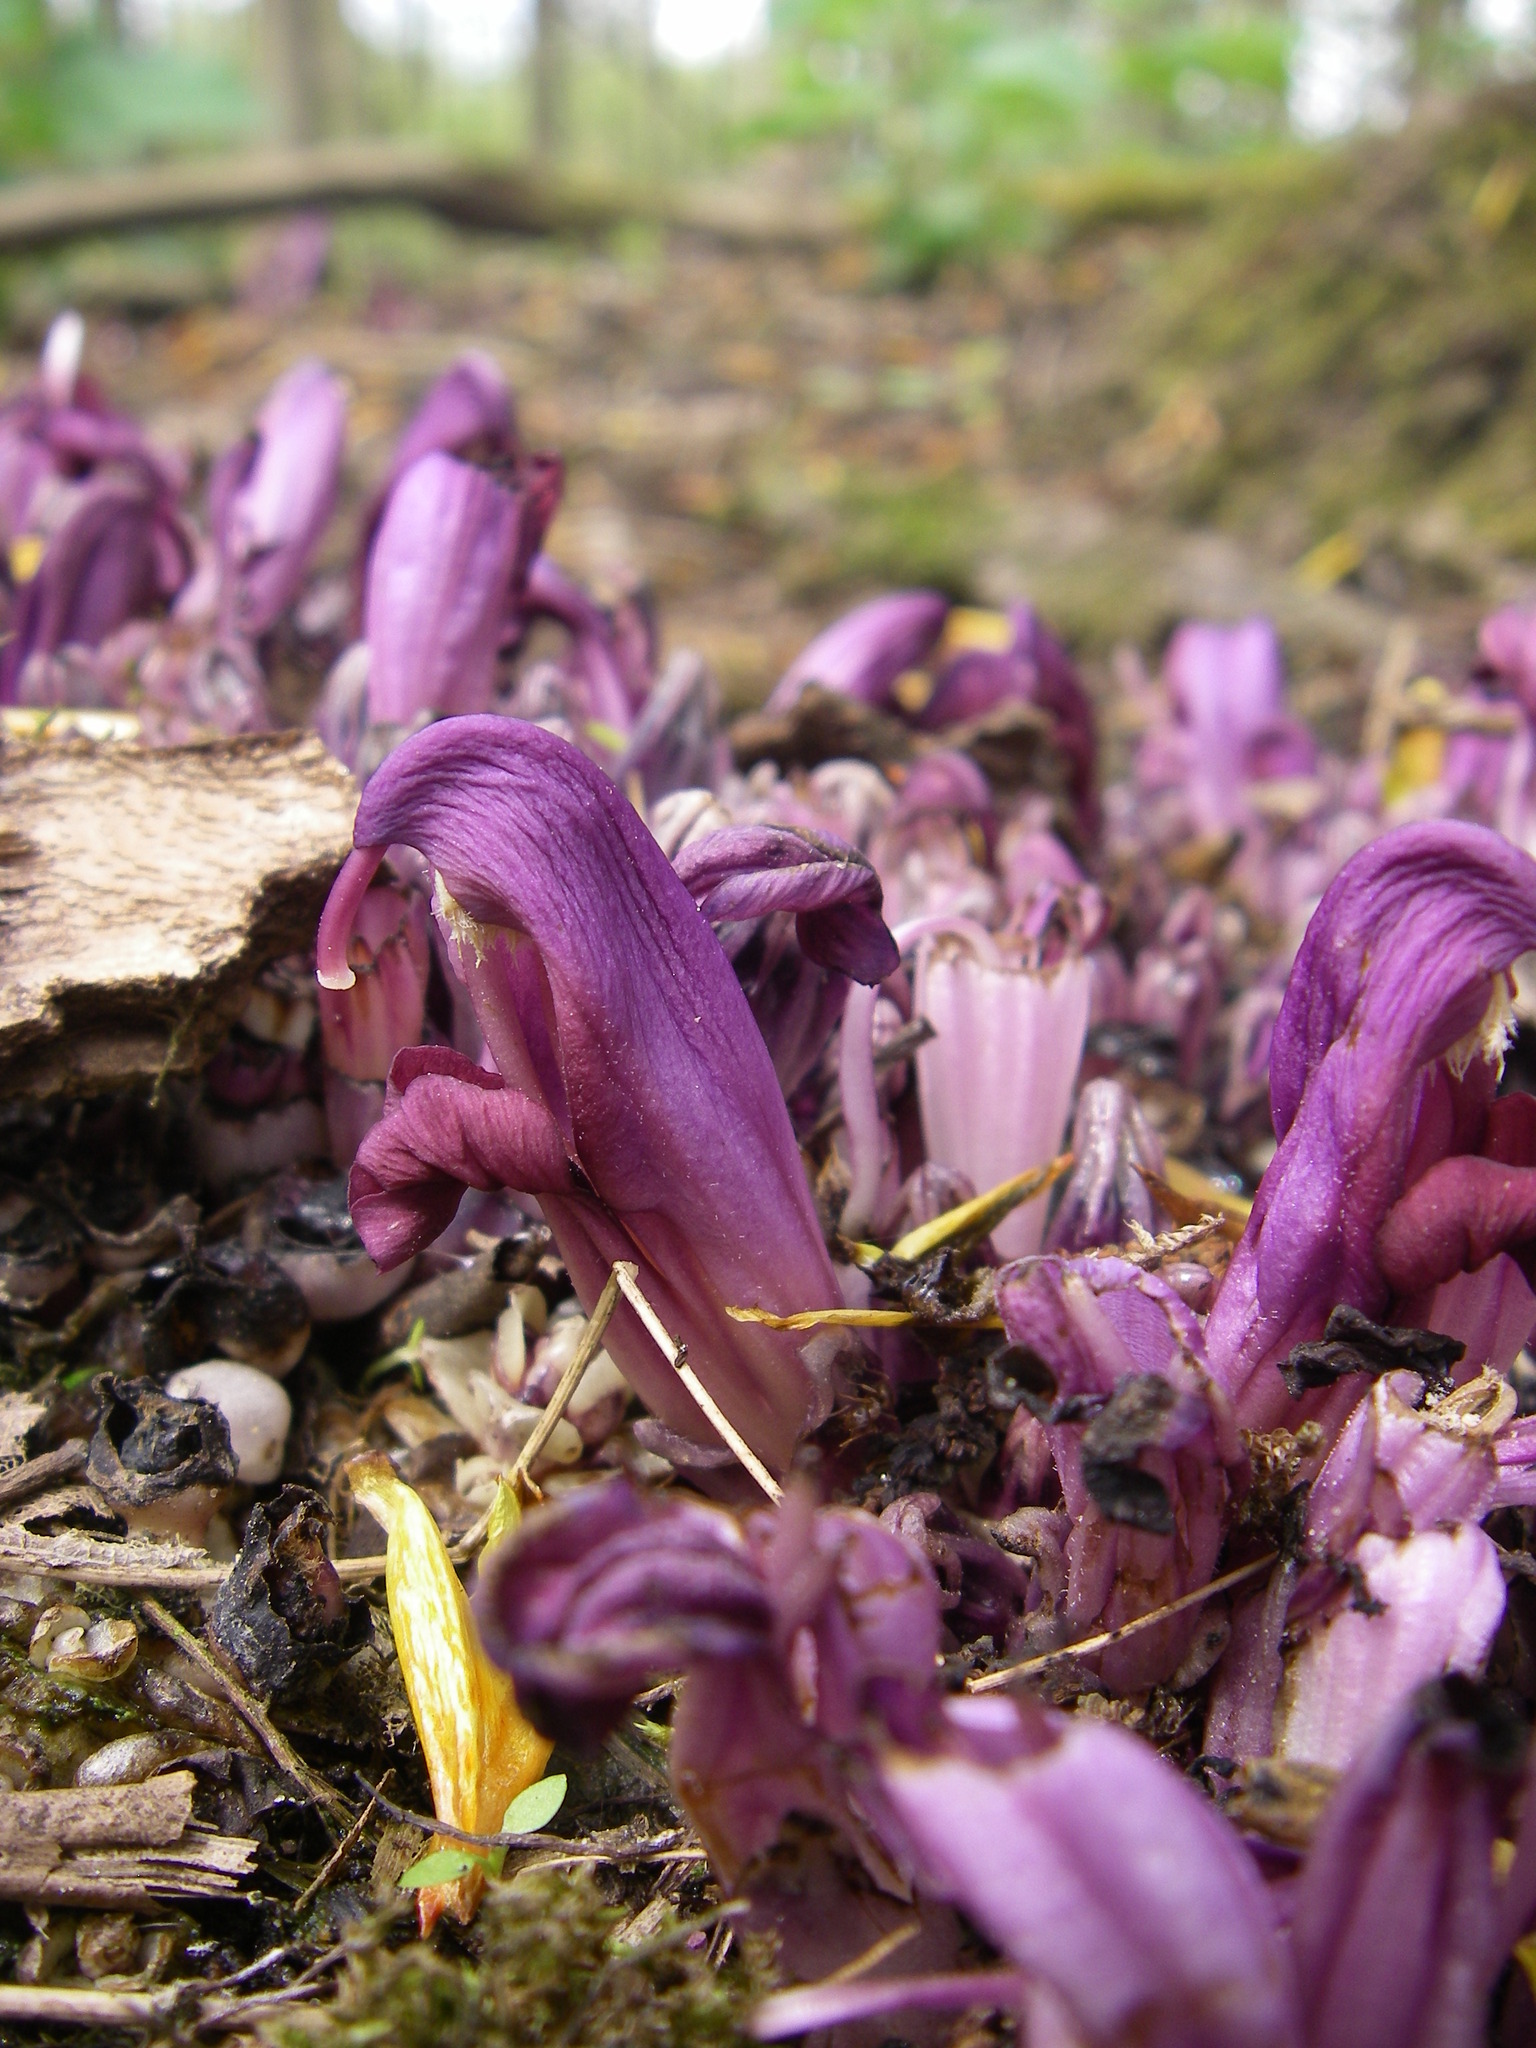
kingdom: Plantae
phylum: Tracheophyta
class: Magnoliopsida
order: Lamiales
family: Orobanchaceae
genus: Lathraea
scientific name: Lathraea clandestina
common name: Purple toothwort
